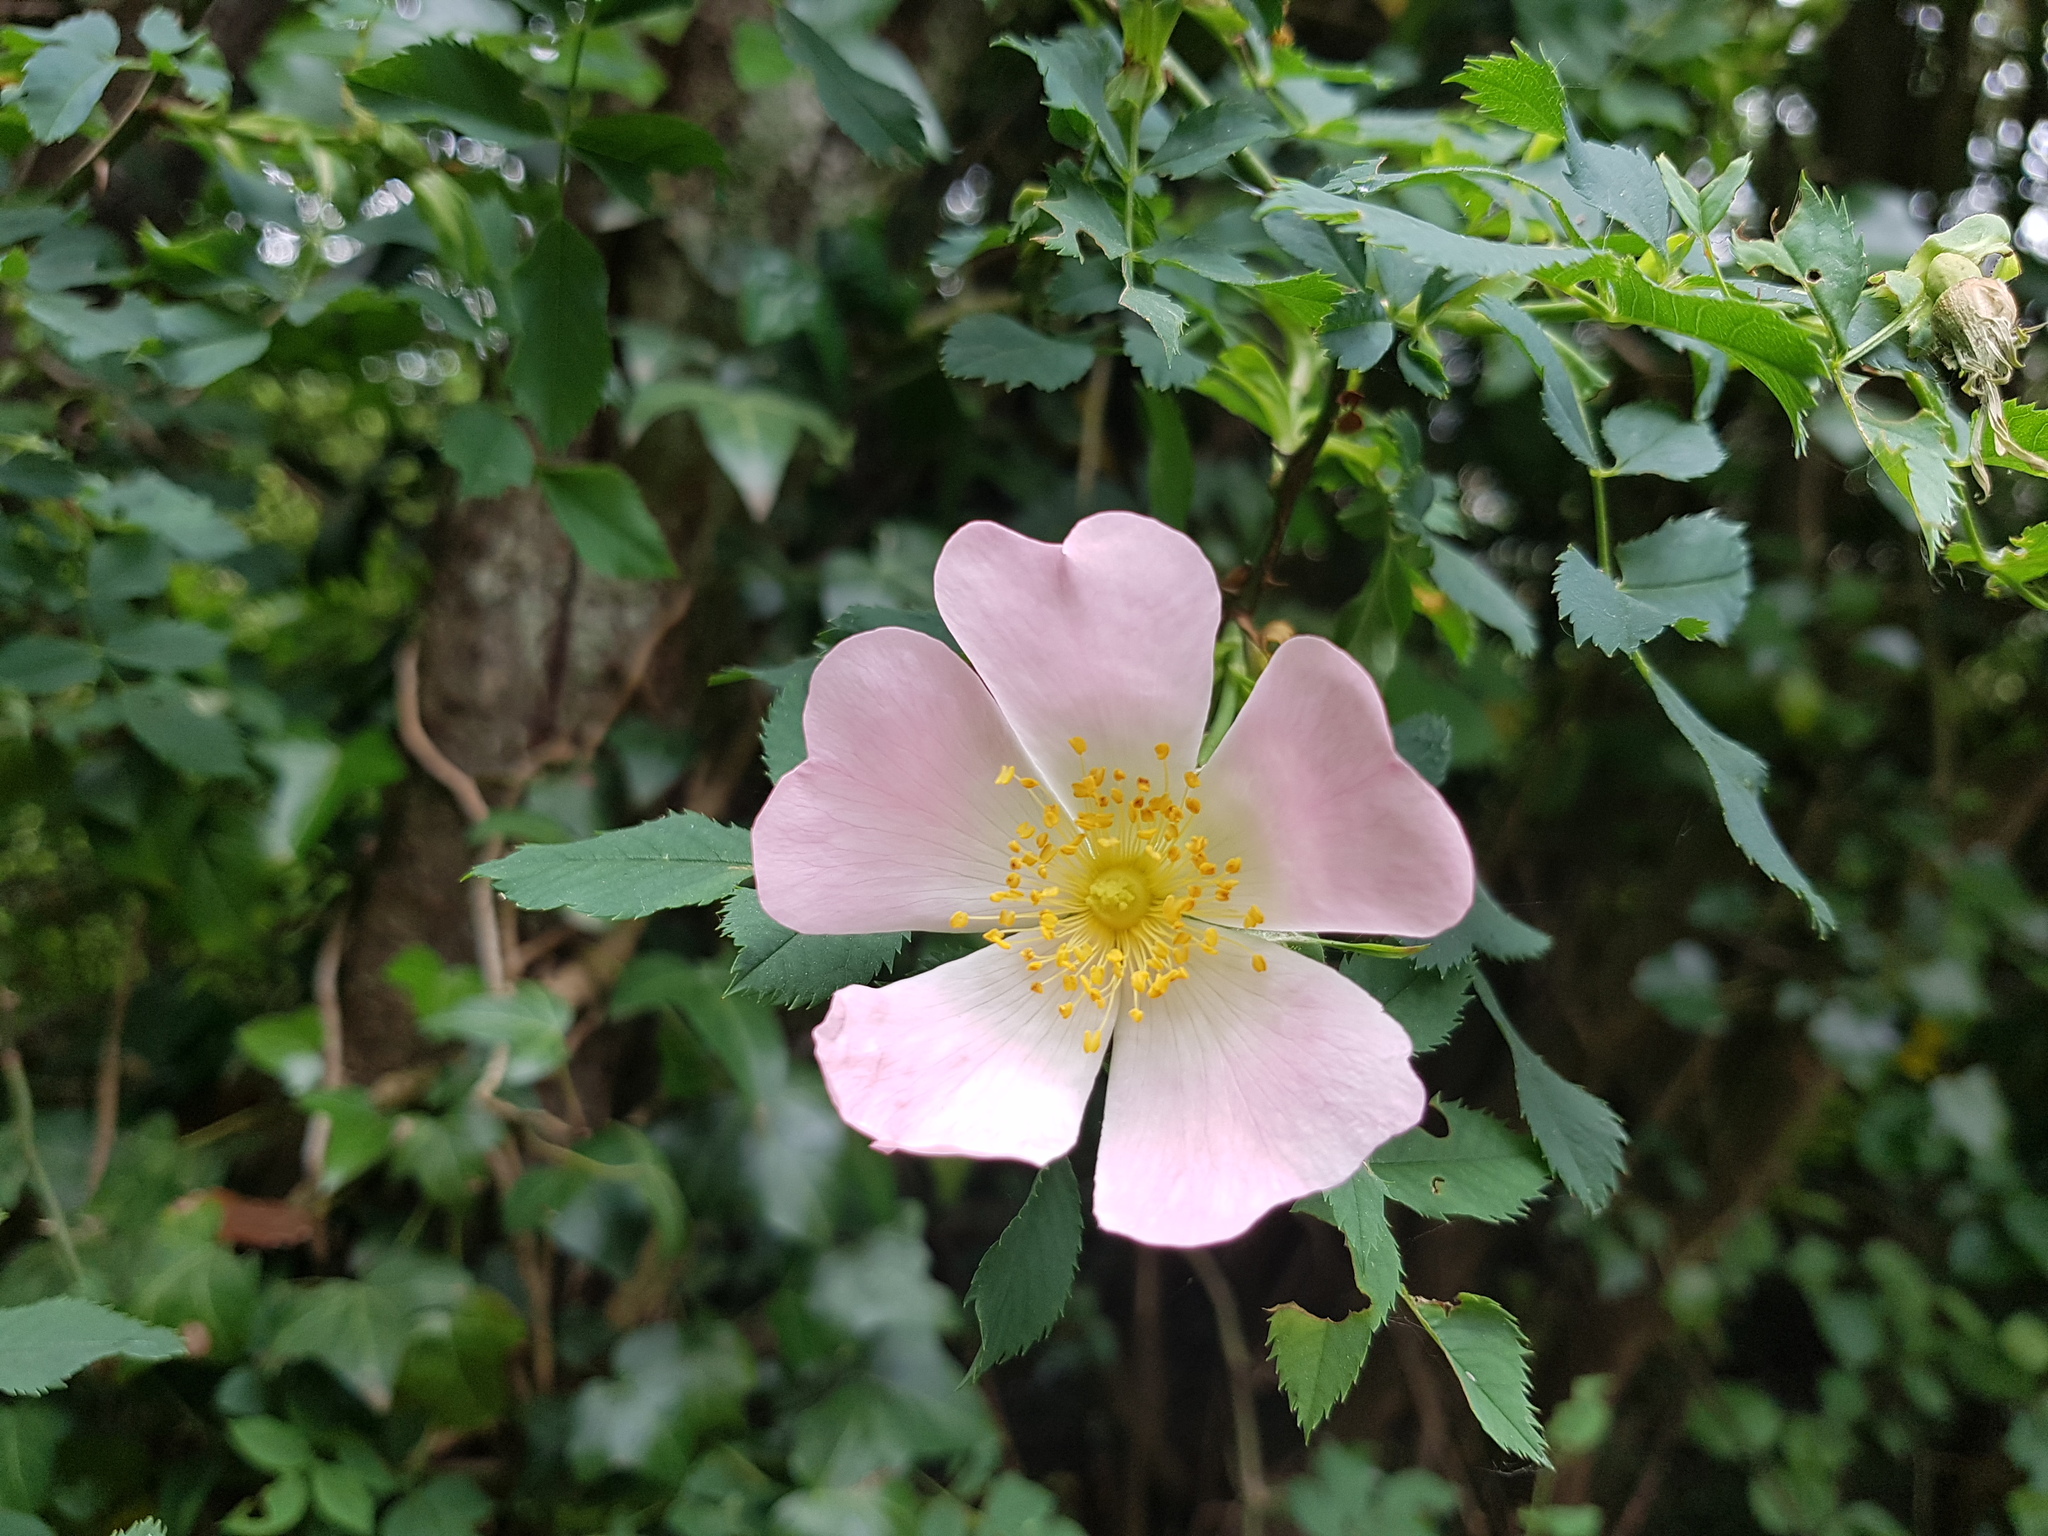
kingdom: Plantae
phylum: Tracheophyta
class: Magnoliopsida
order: Rosales
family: Rosaceae
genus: Rosa
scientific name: Rosa canina
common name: Dog rose
